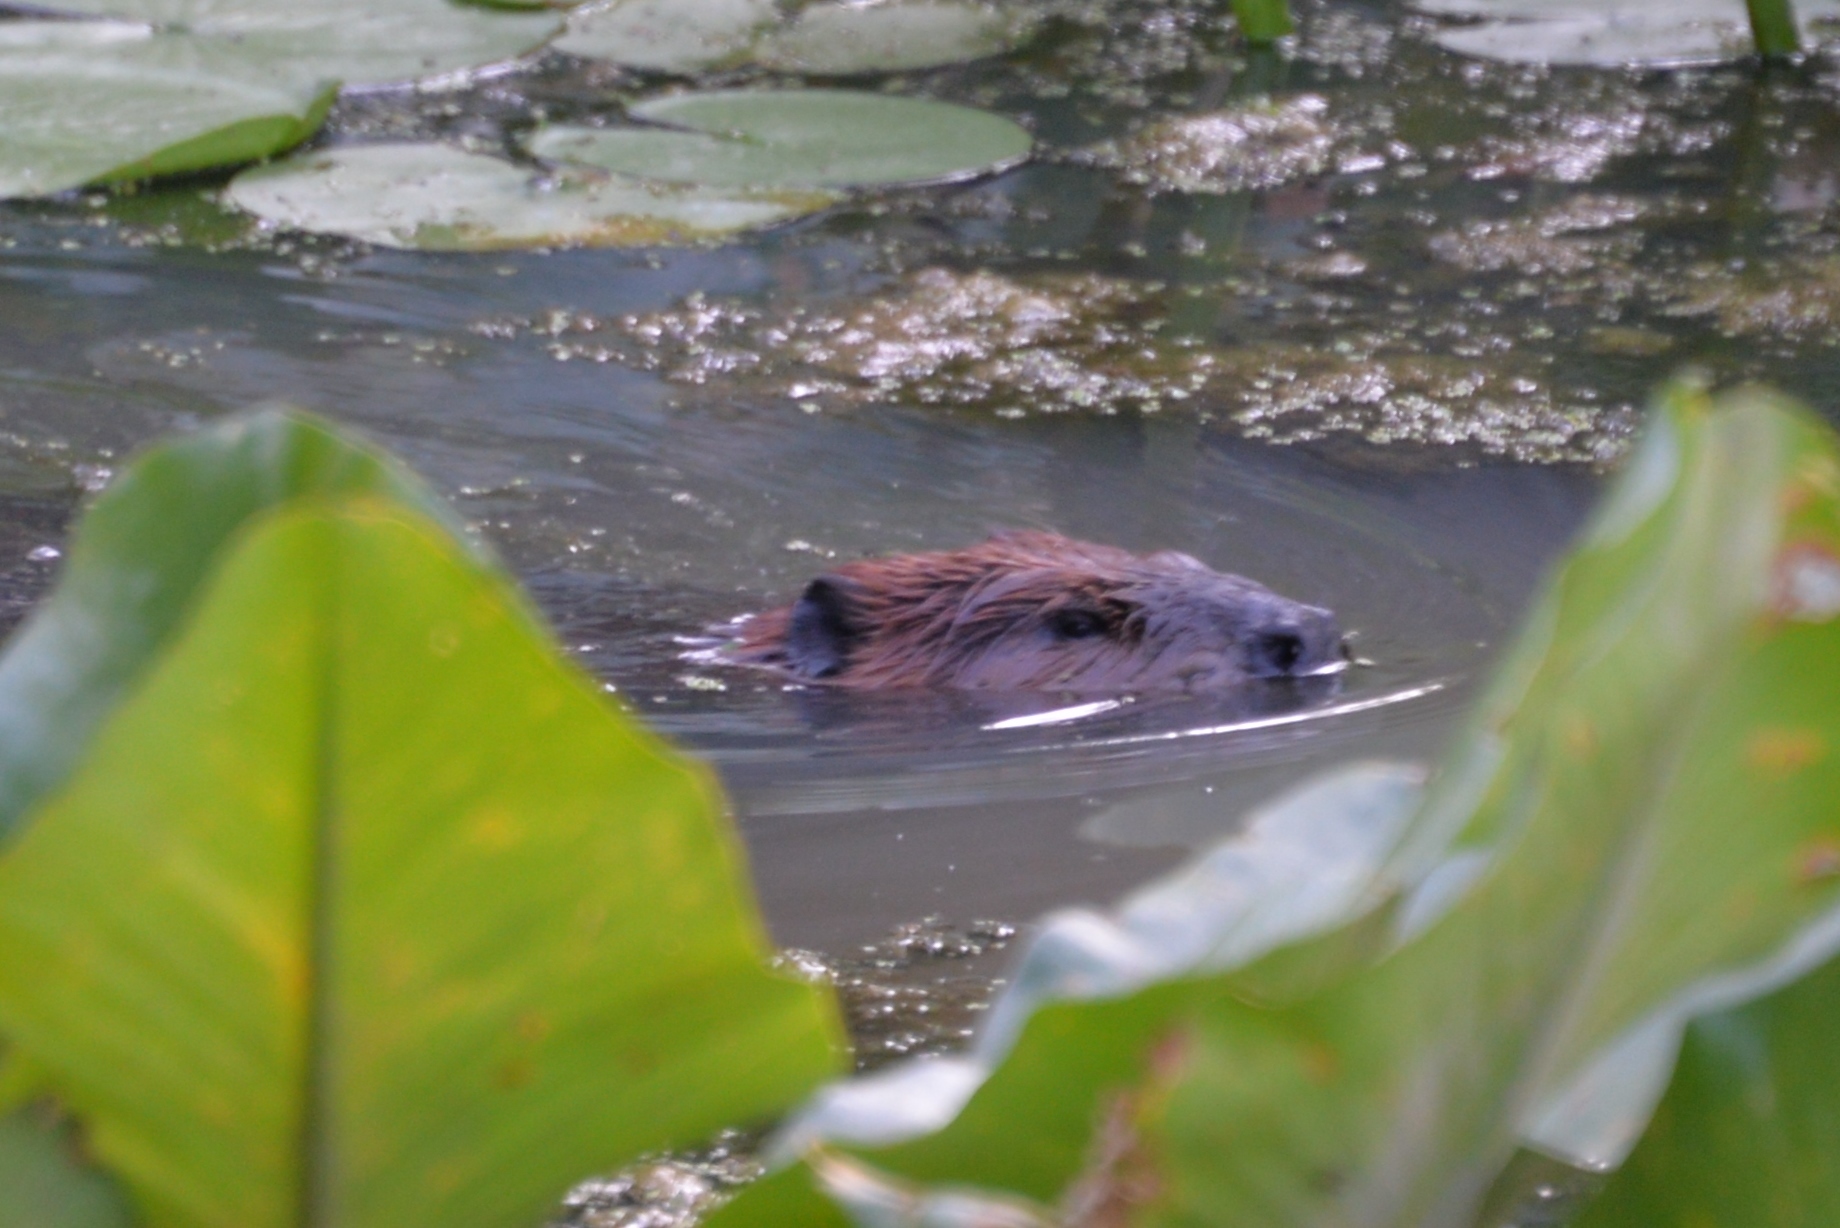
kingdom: Animalia
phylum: Chordata
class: Mammalia
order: Rodentia
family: Castoridae
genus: Castor
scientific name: Castor canadensis
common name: American beaver
